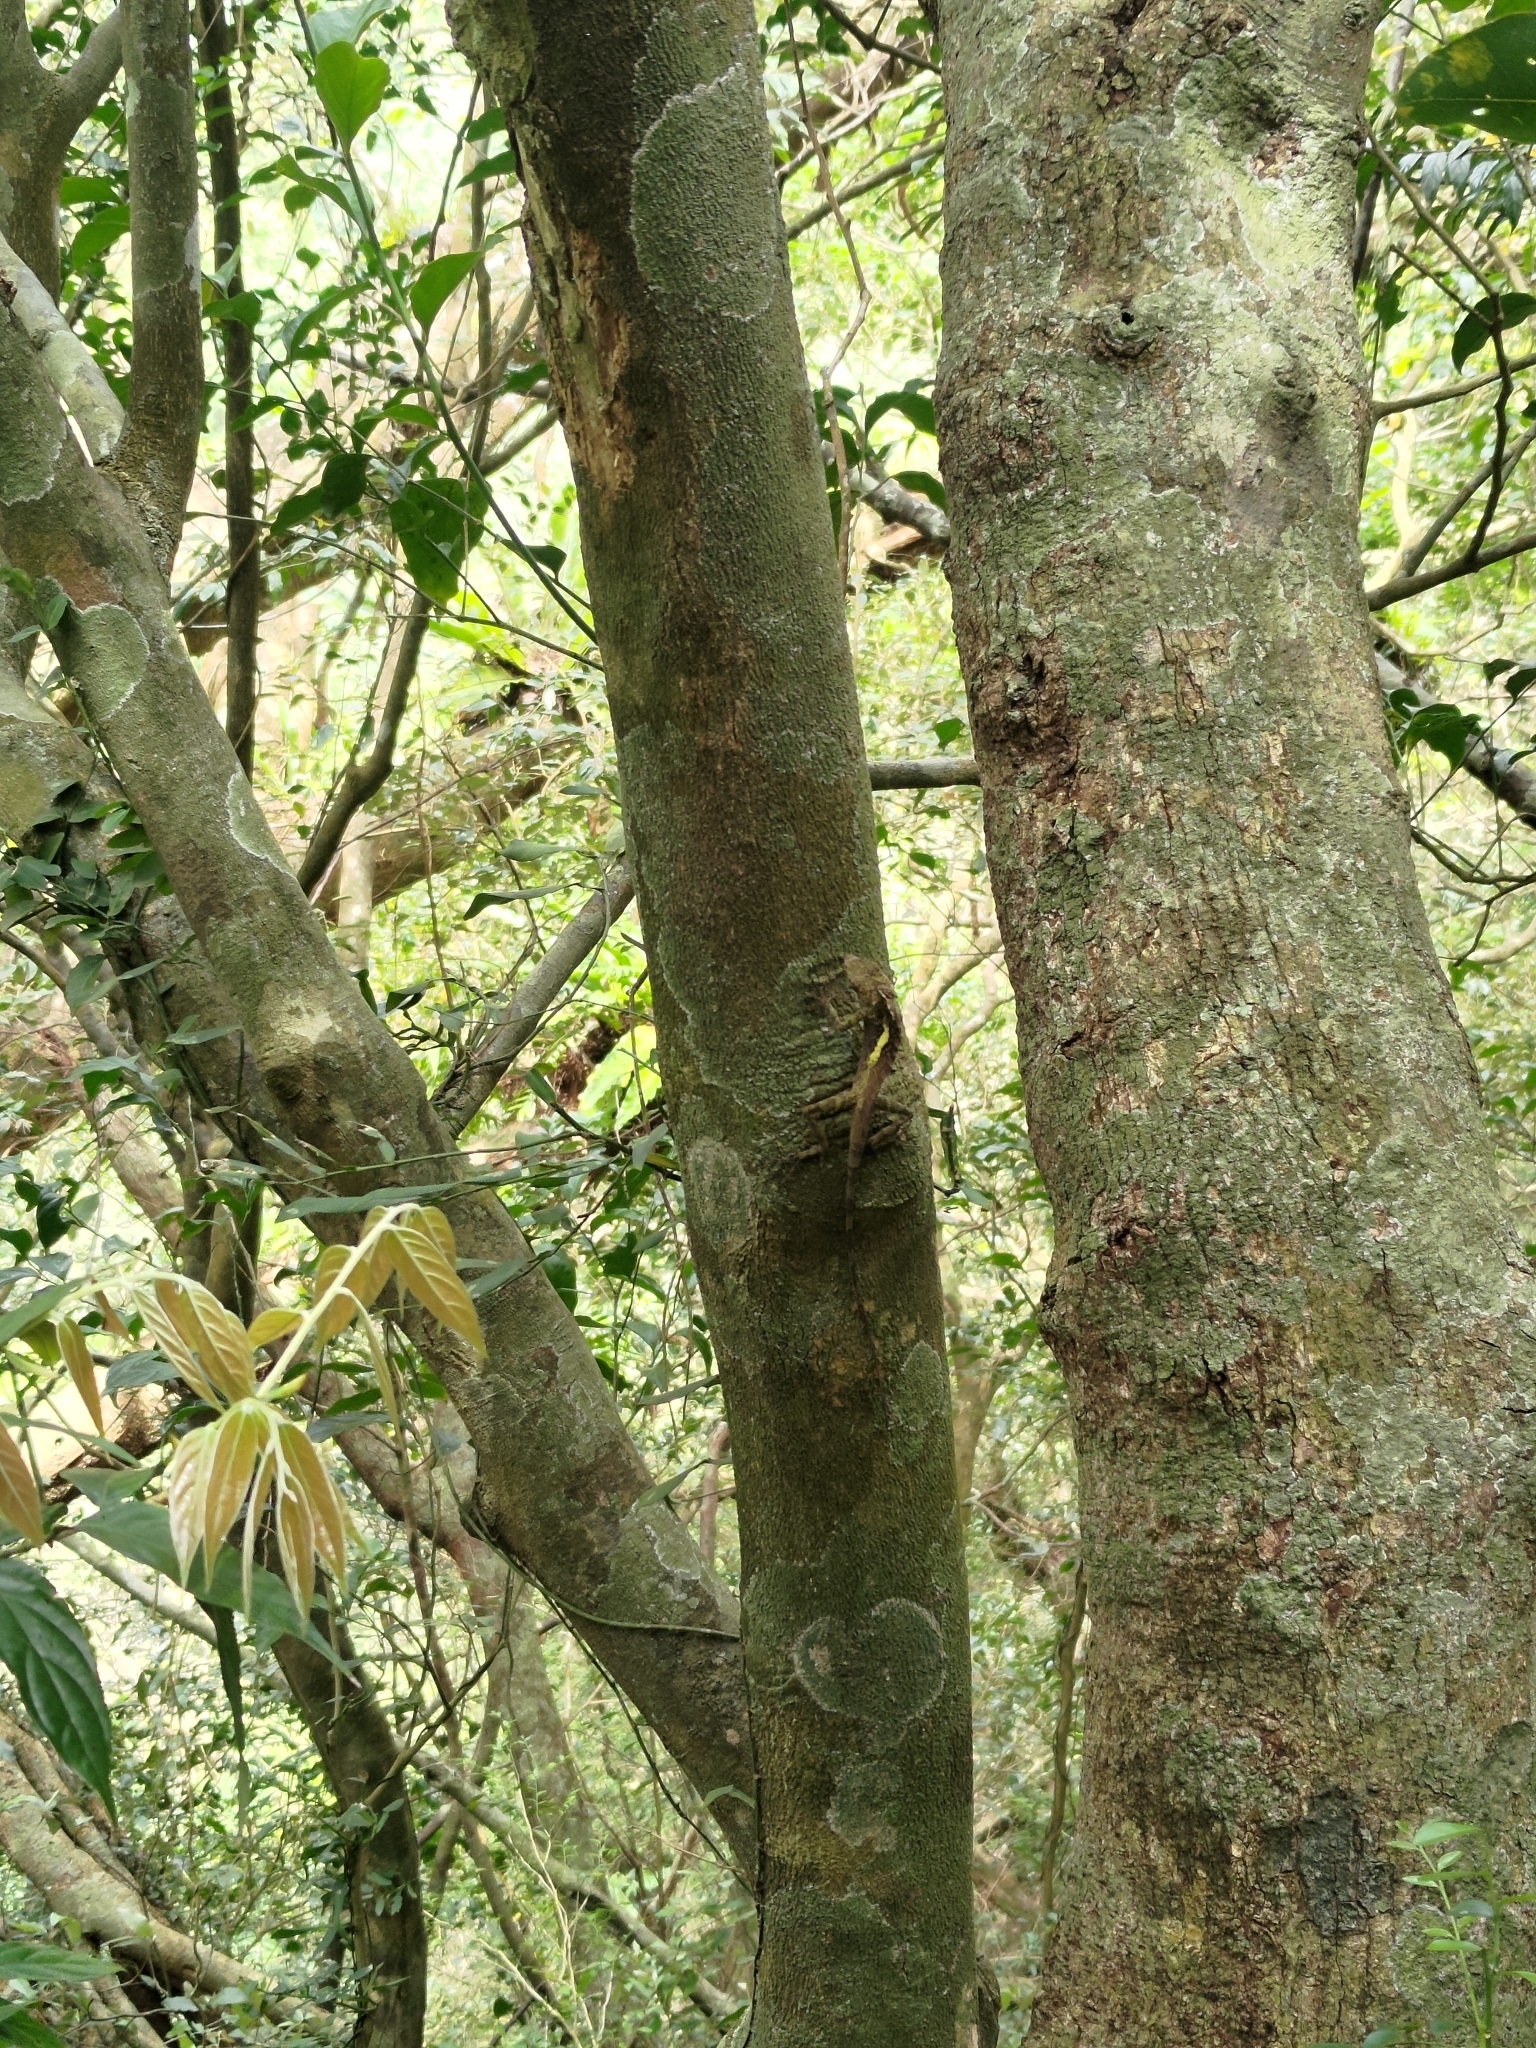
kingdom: Animalia
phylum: Chordata
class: Squamata
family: Agamidae
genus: Diploderma
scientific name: Diploderma swinhonis
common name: Taiwan japalure
